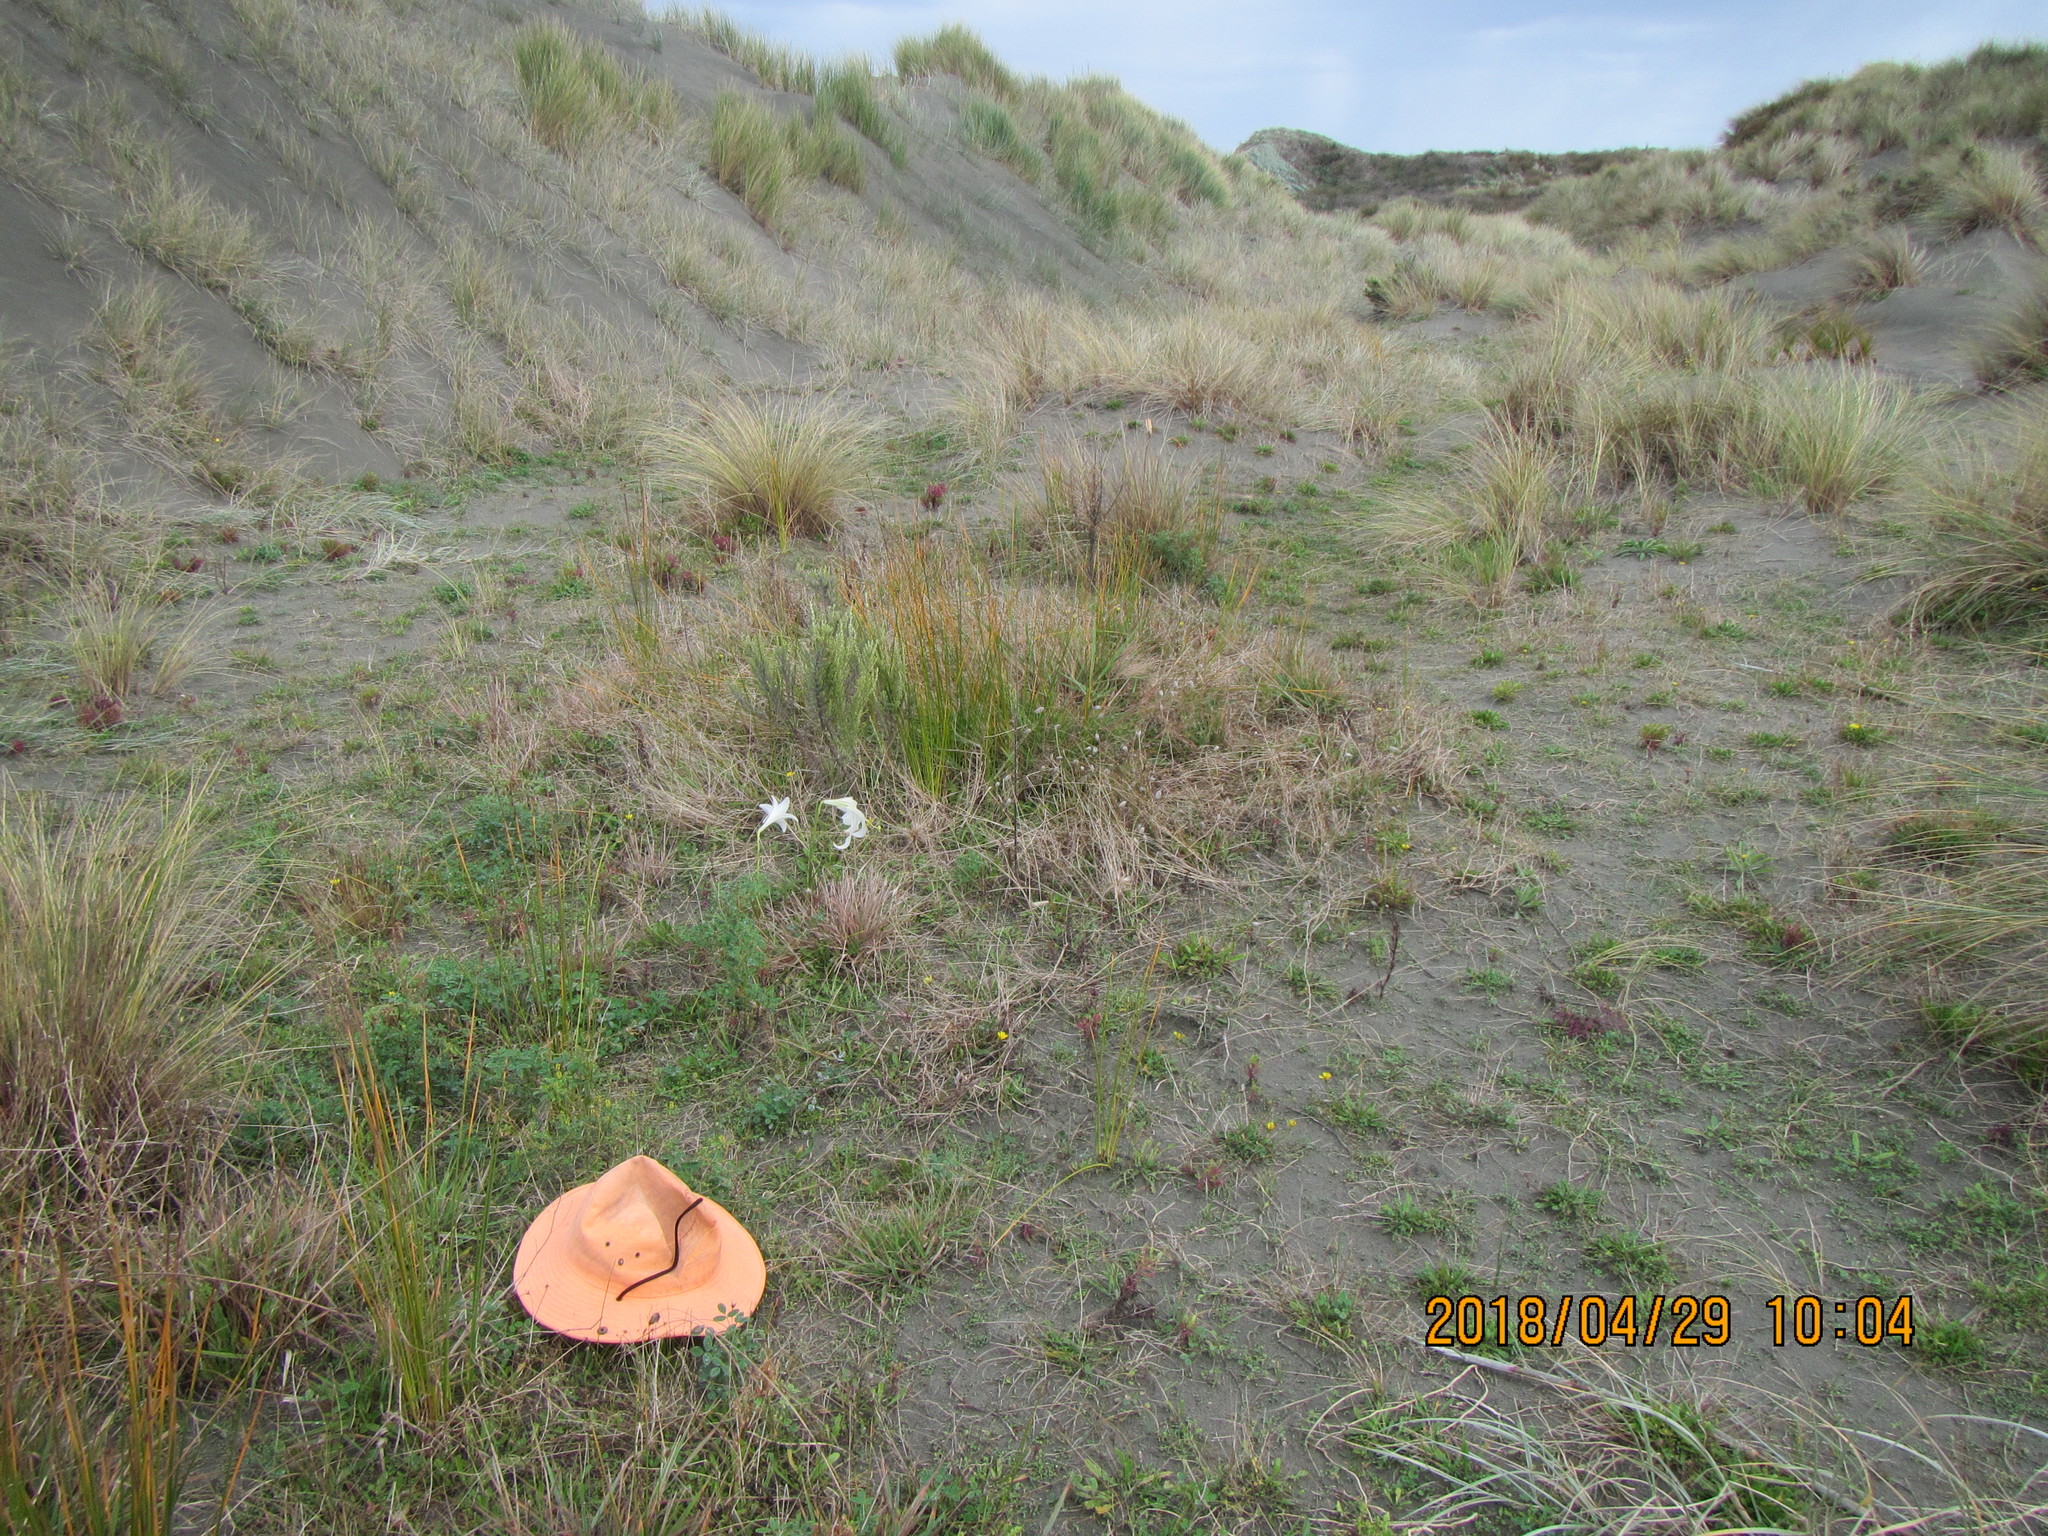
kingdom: Plantae
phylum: Tracheophyta
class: Magnoliopsida
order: Fabales
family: Fabaceae
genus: Melilotus
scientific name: Melilotus indicus
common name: Small melilot
